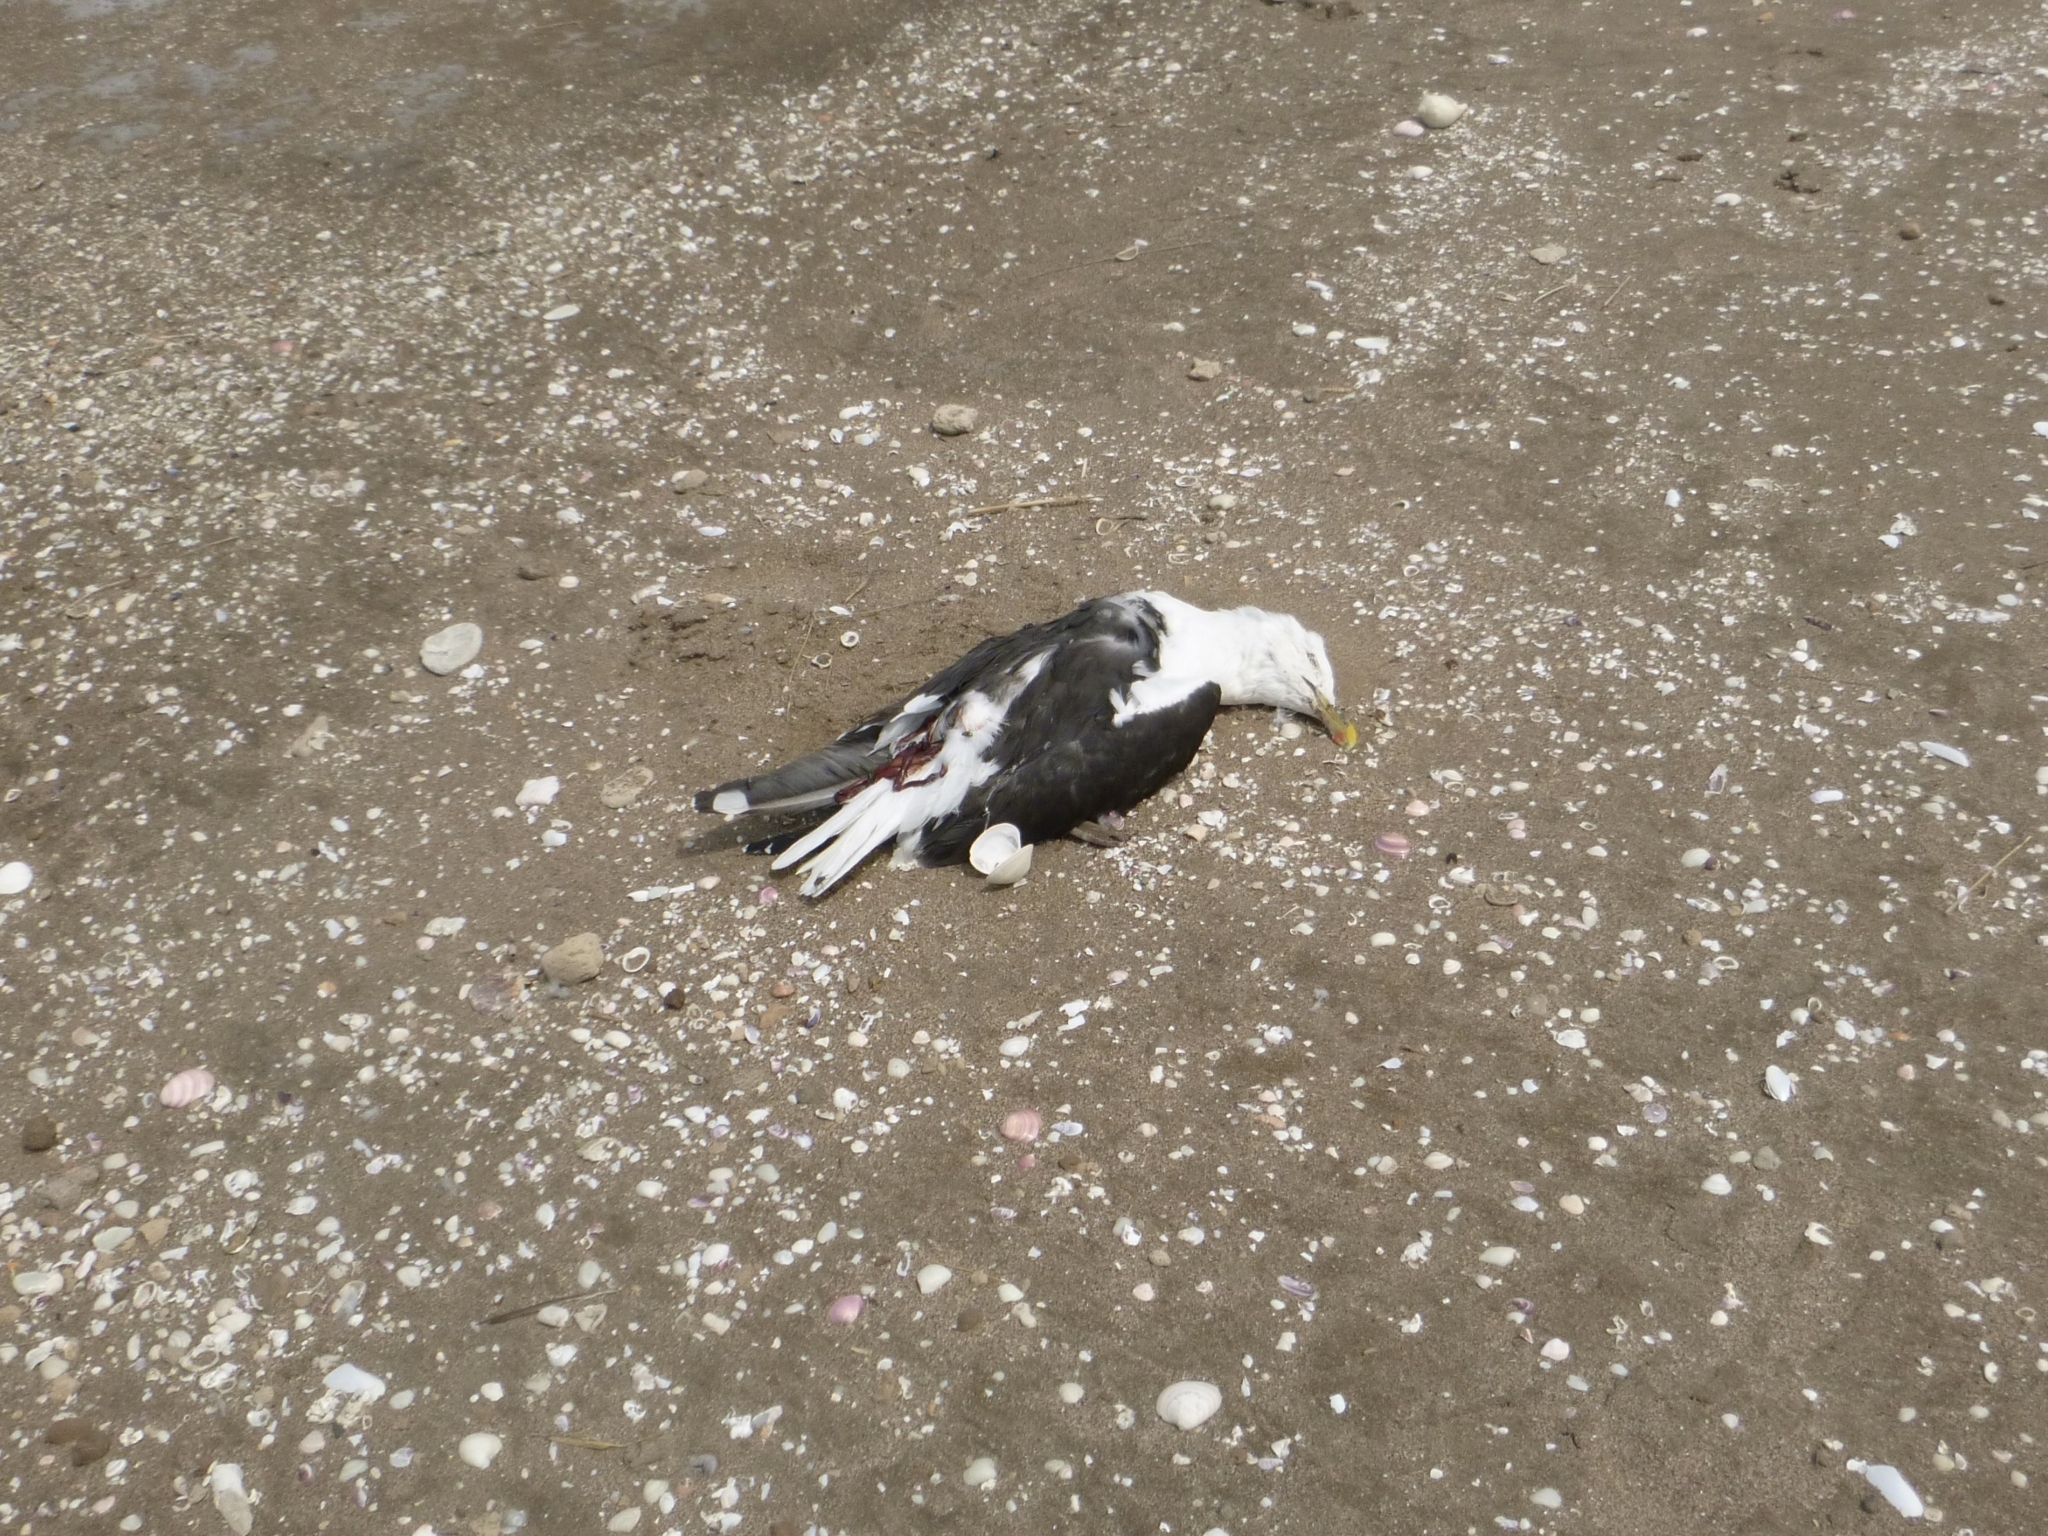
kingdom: Animalia
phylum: Chordata
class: Aves
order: Charadriiformes
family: Laridae
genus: Larus
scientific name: Larus dominicanus
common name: Kelp gull
